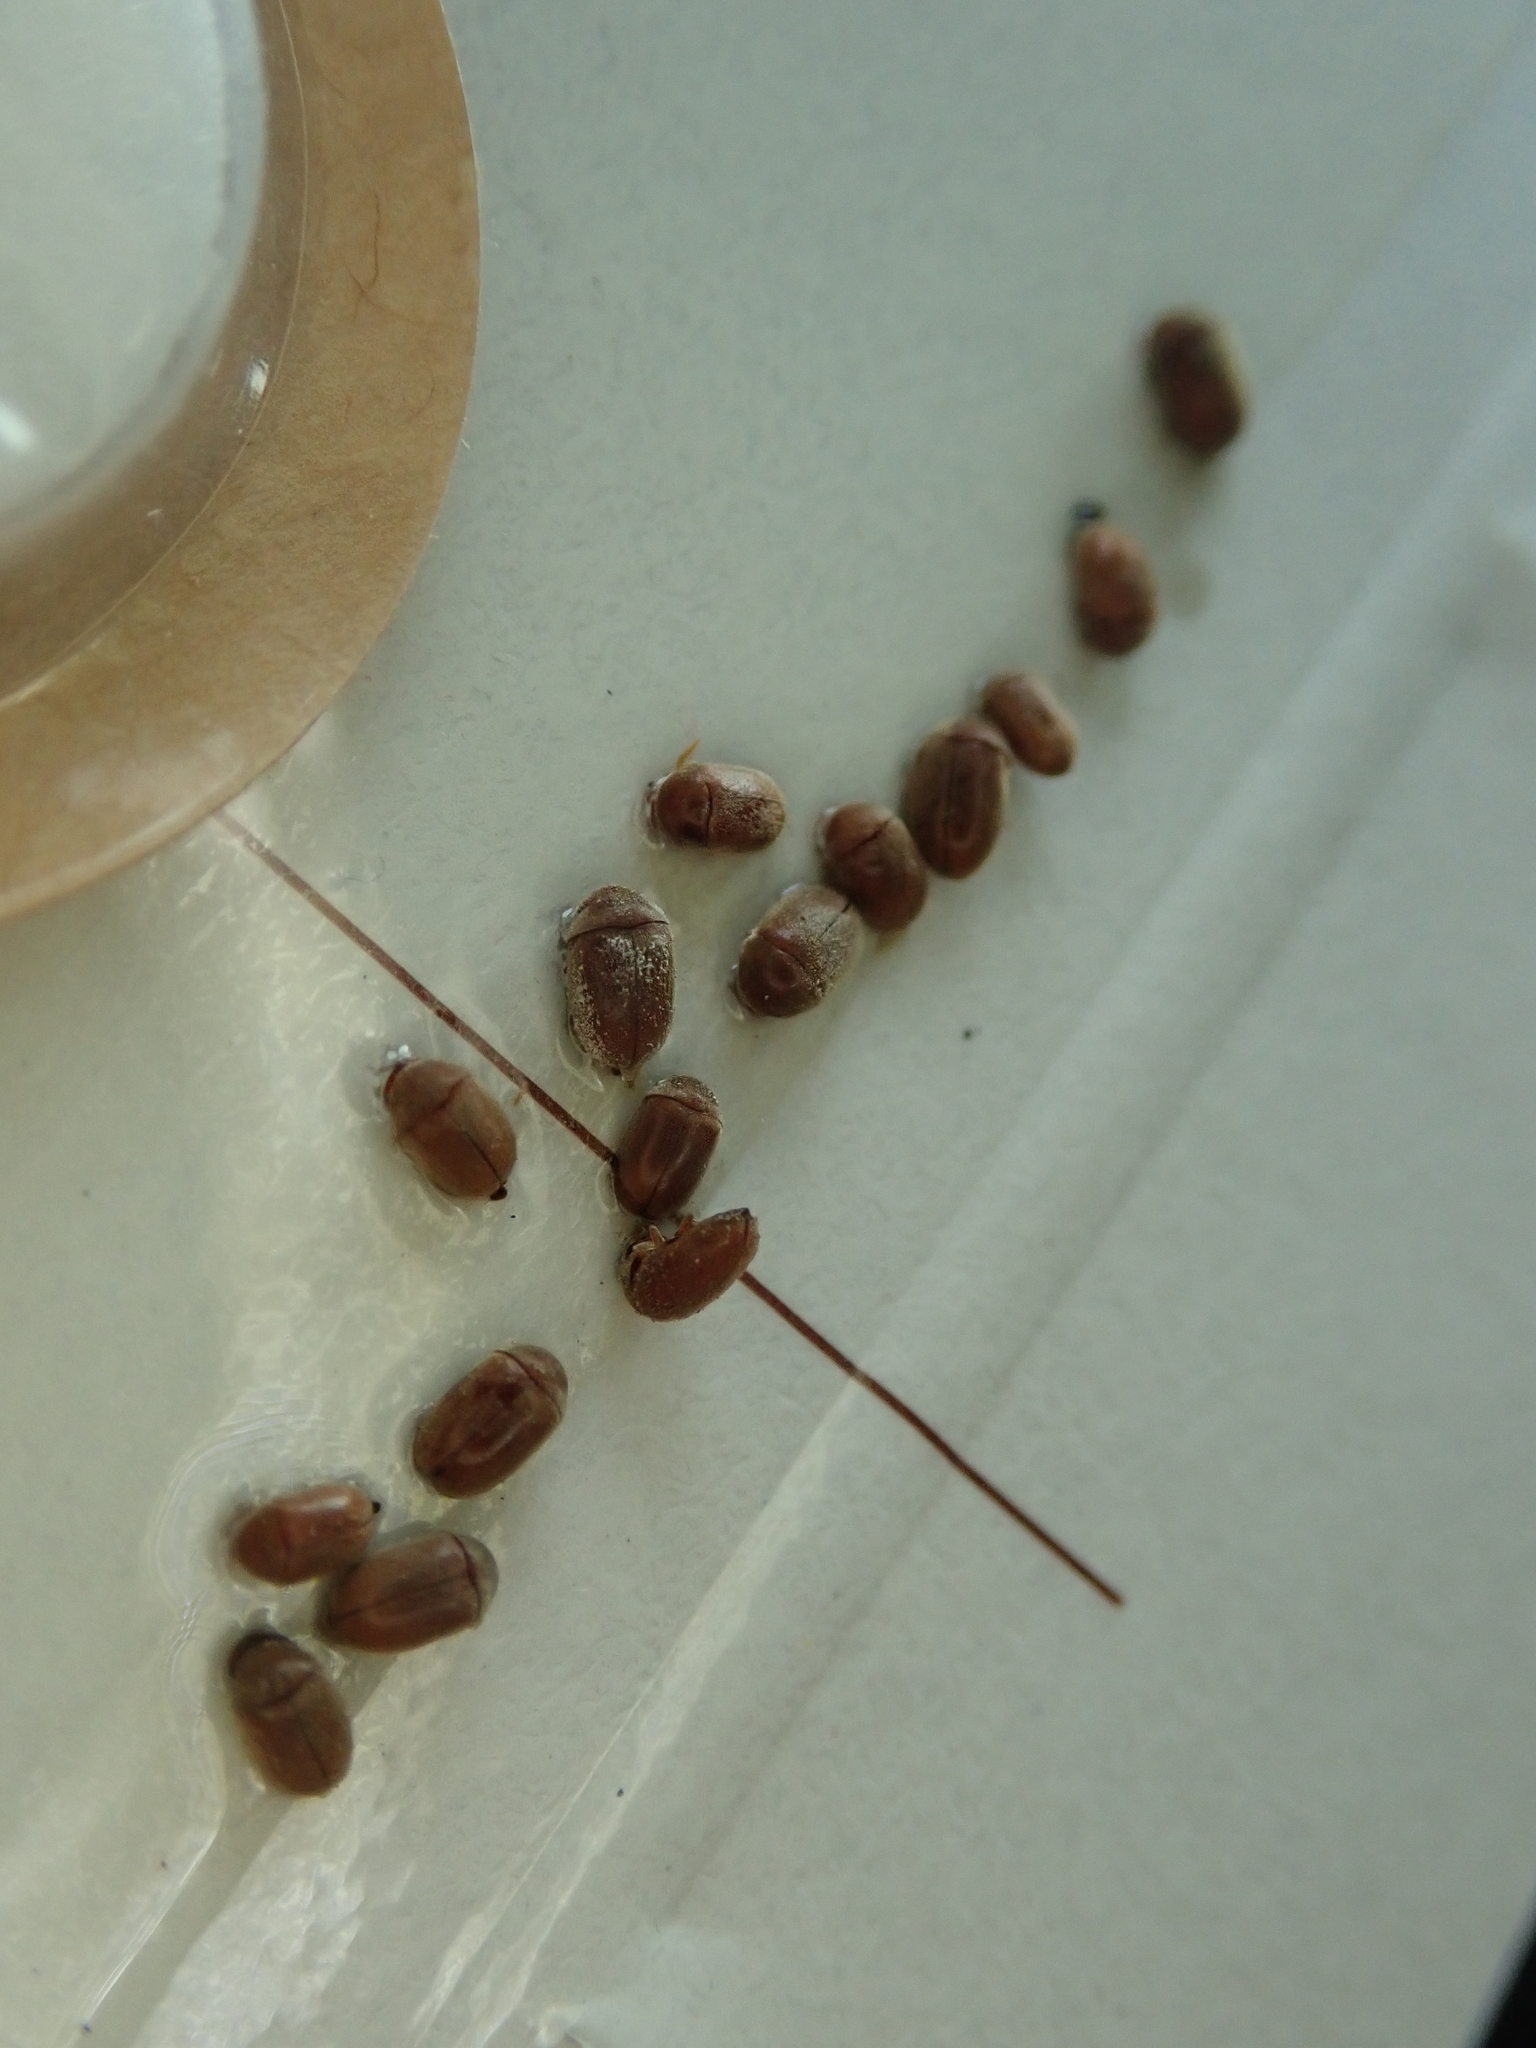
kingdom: Animalia
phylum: Arthropoda
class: Insecta
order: Coleoptera
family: Anobiidae
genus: Lasioderma
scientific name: Lasioderma serricorne
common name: Cigarette beetle
